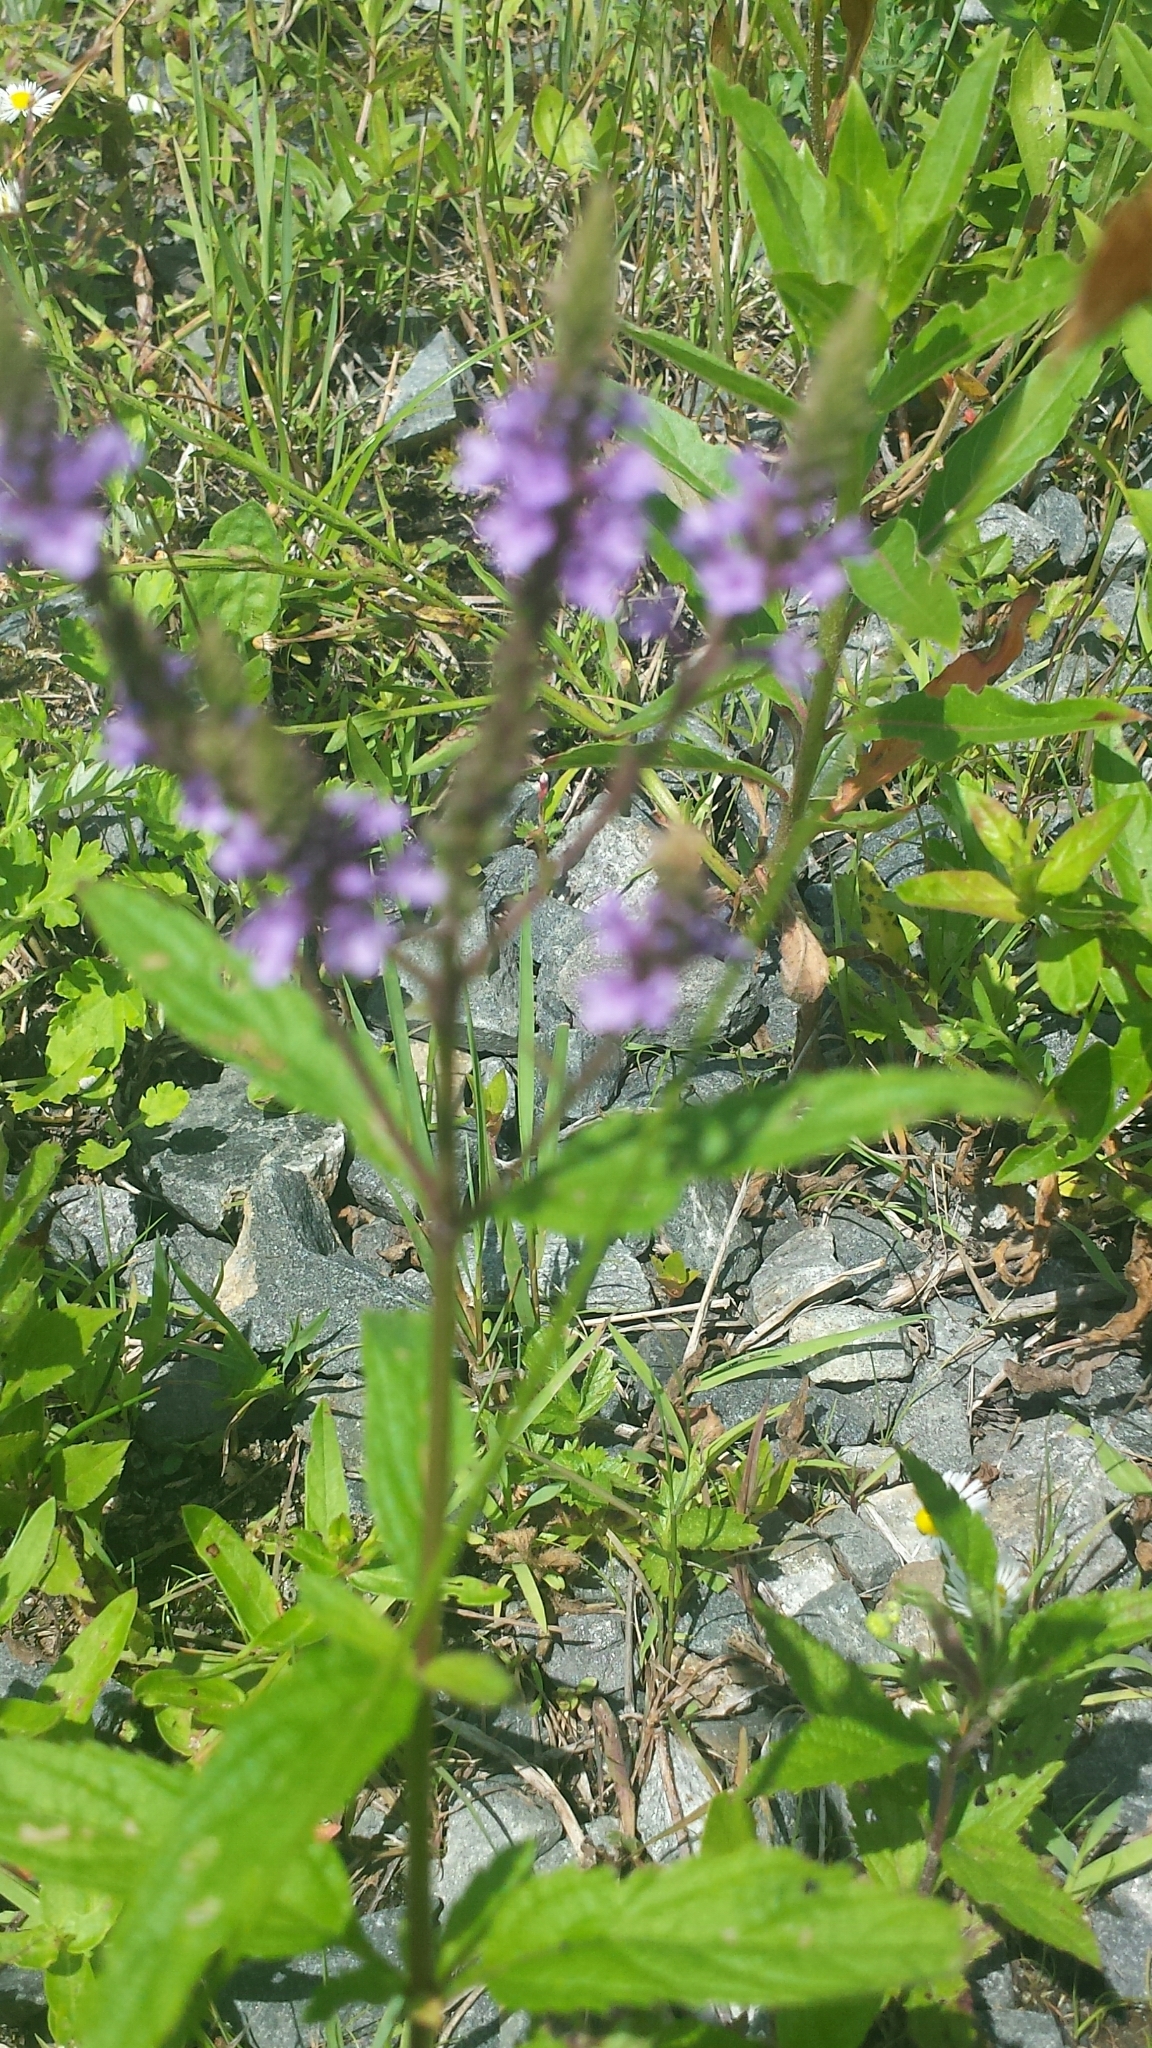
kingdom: Plantae
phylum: Tracheophyta
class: Magnoliopsida
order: Lamiales
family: Verbenaceae
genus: Verbena
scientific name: Verbena hastata
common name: American blue vervain
